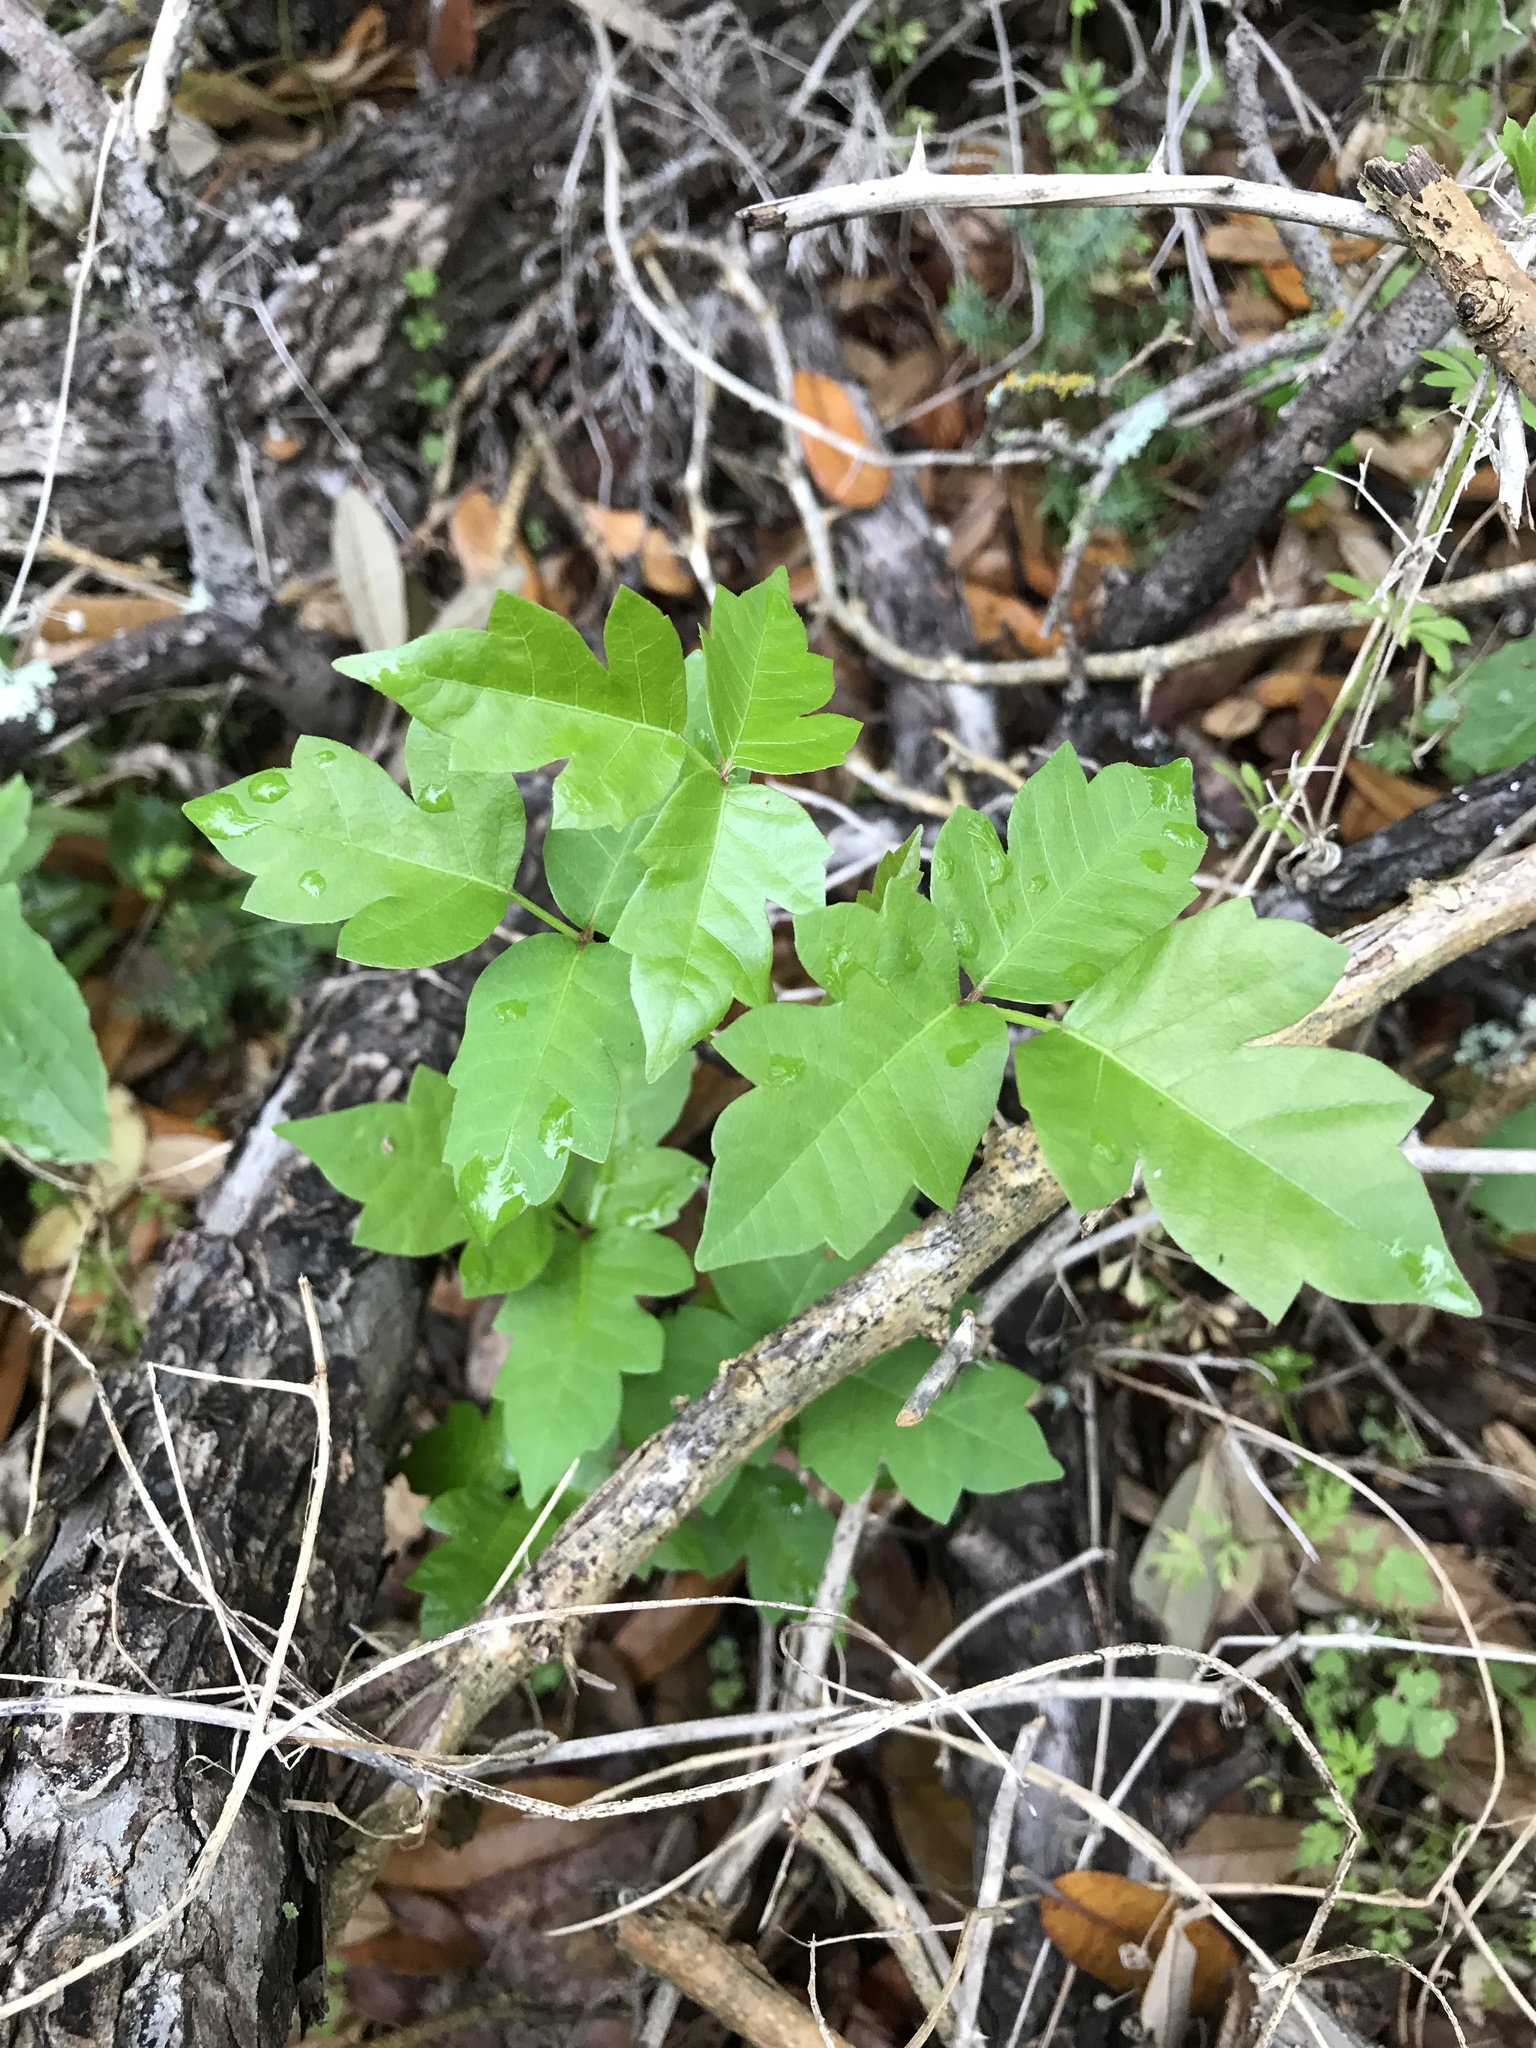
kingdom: Plantae
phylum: Tracheophyta
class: Magnoliopsida
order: Sapindales
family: Anacardiaceae
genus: Toxicodendron
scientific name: Toxicodendron radicans
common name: Poison ivy
